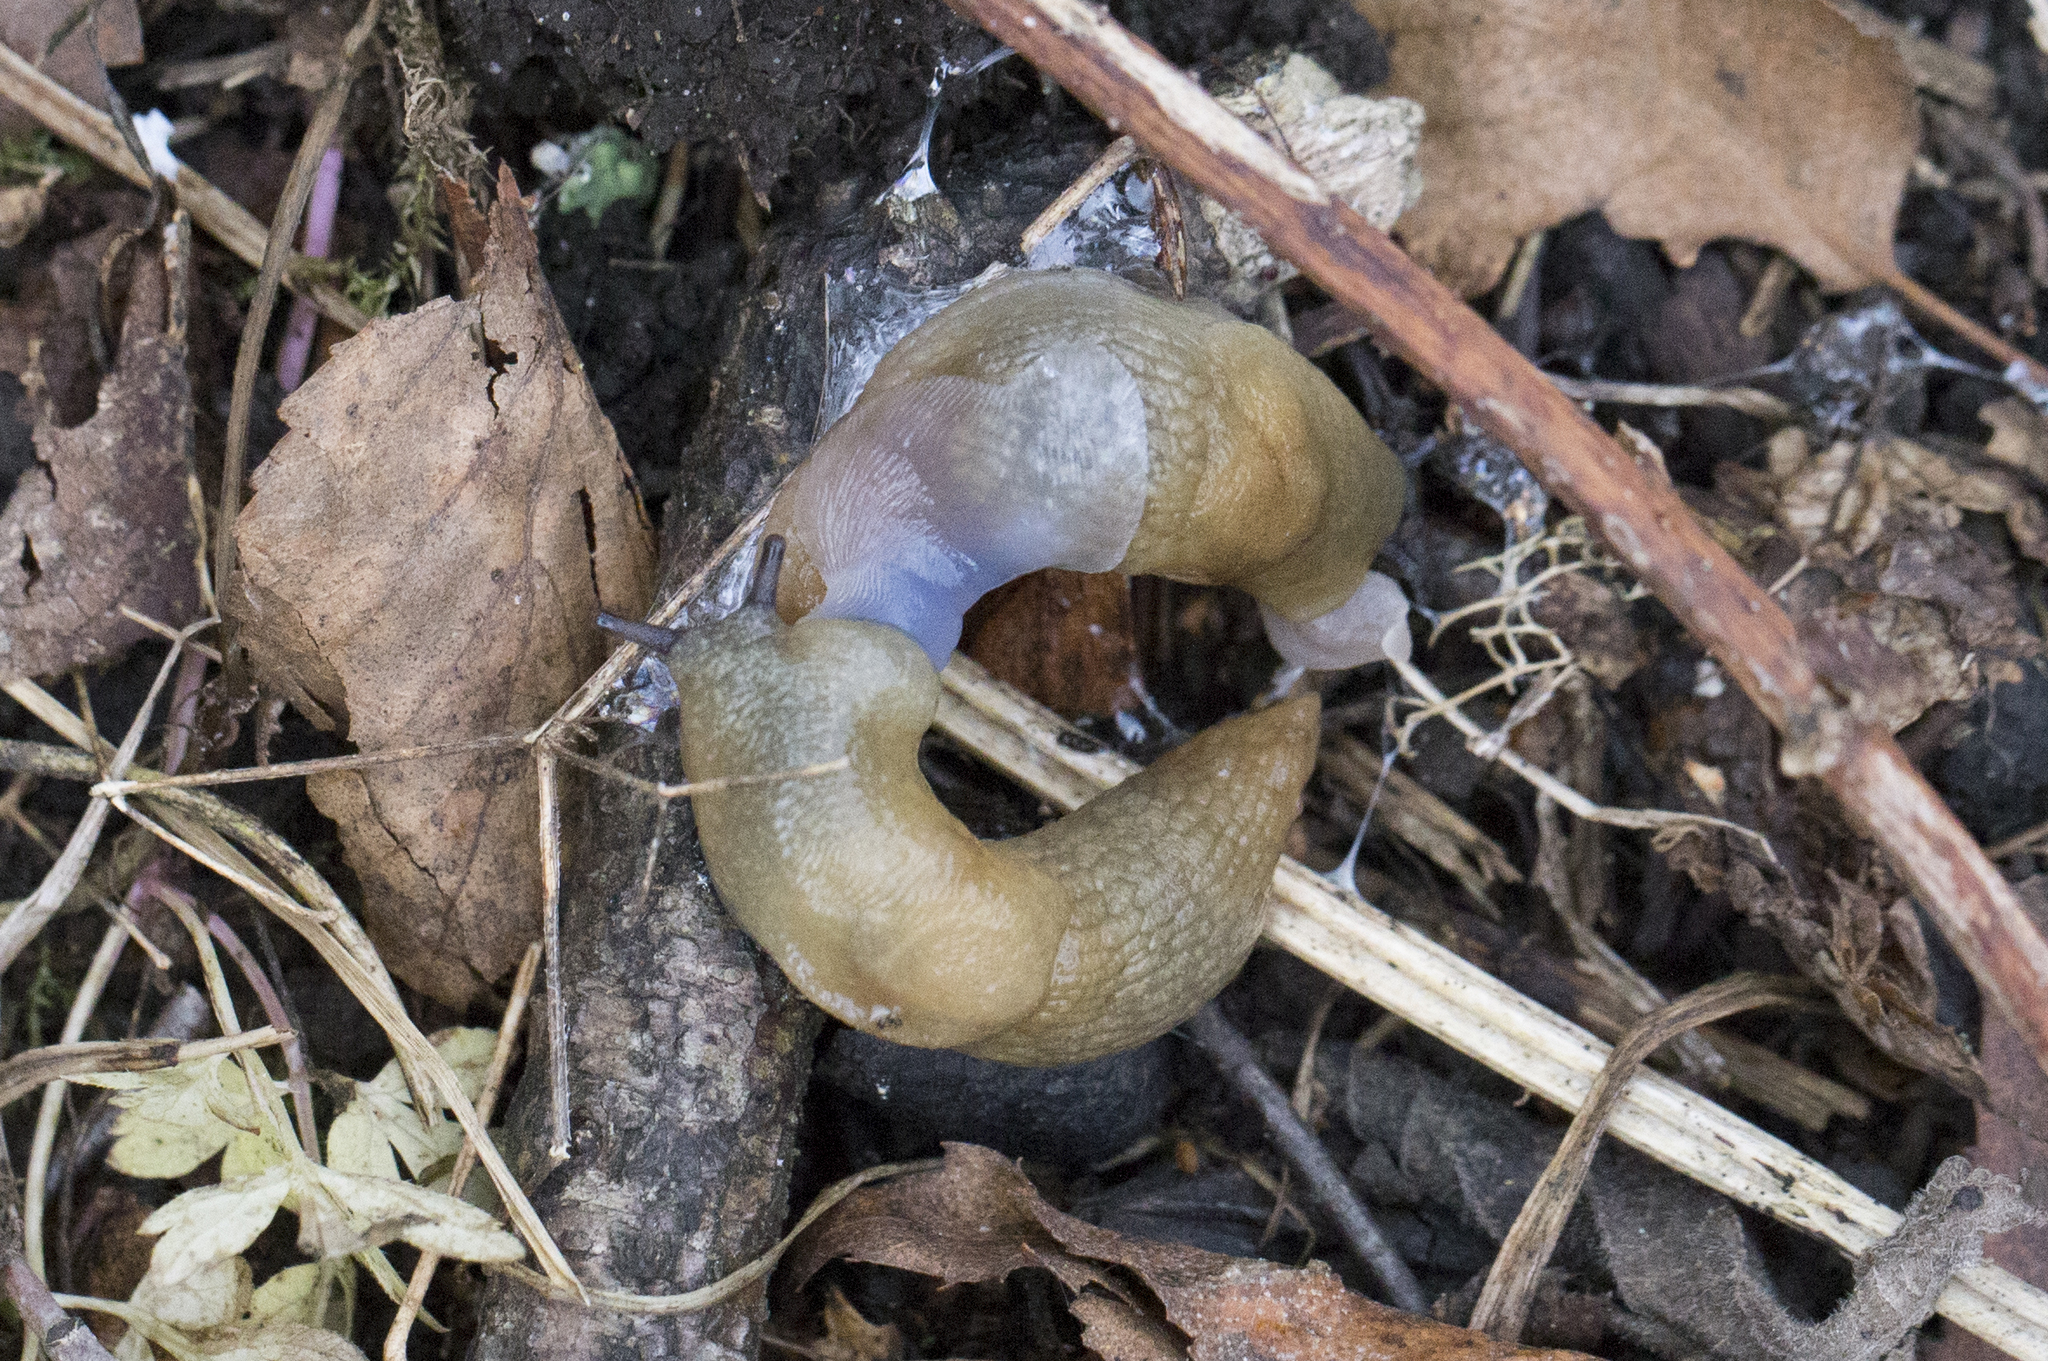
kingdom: Animalia
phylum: Mollusca
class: Gastropoda
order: Stylommatophora
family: Agriolimacidae
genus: Deroceras
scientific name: Deroceras caucasicum
